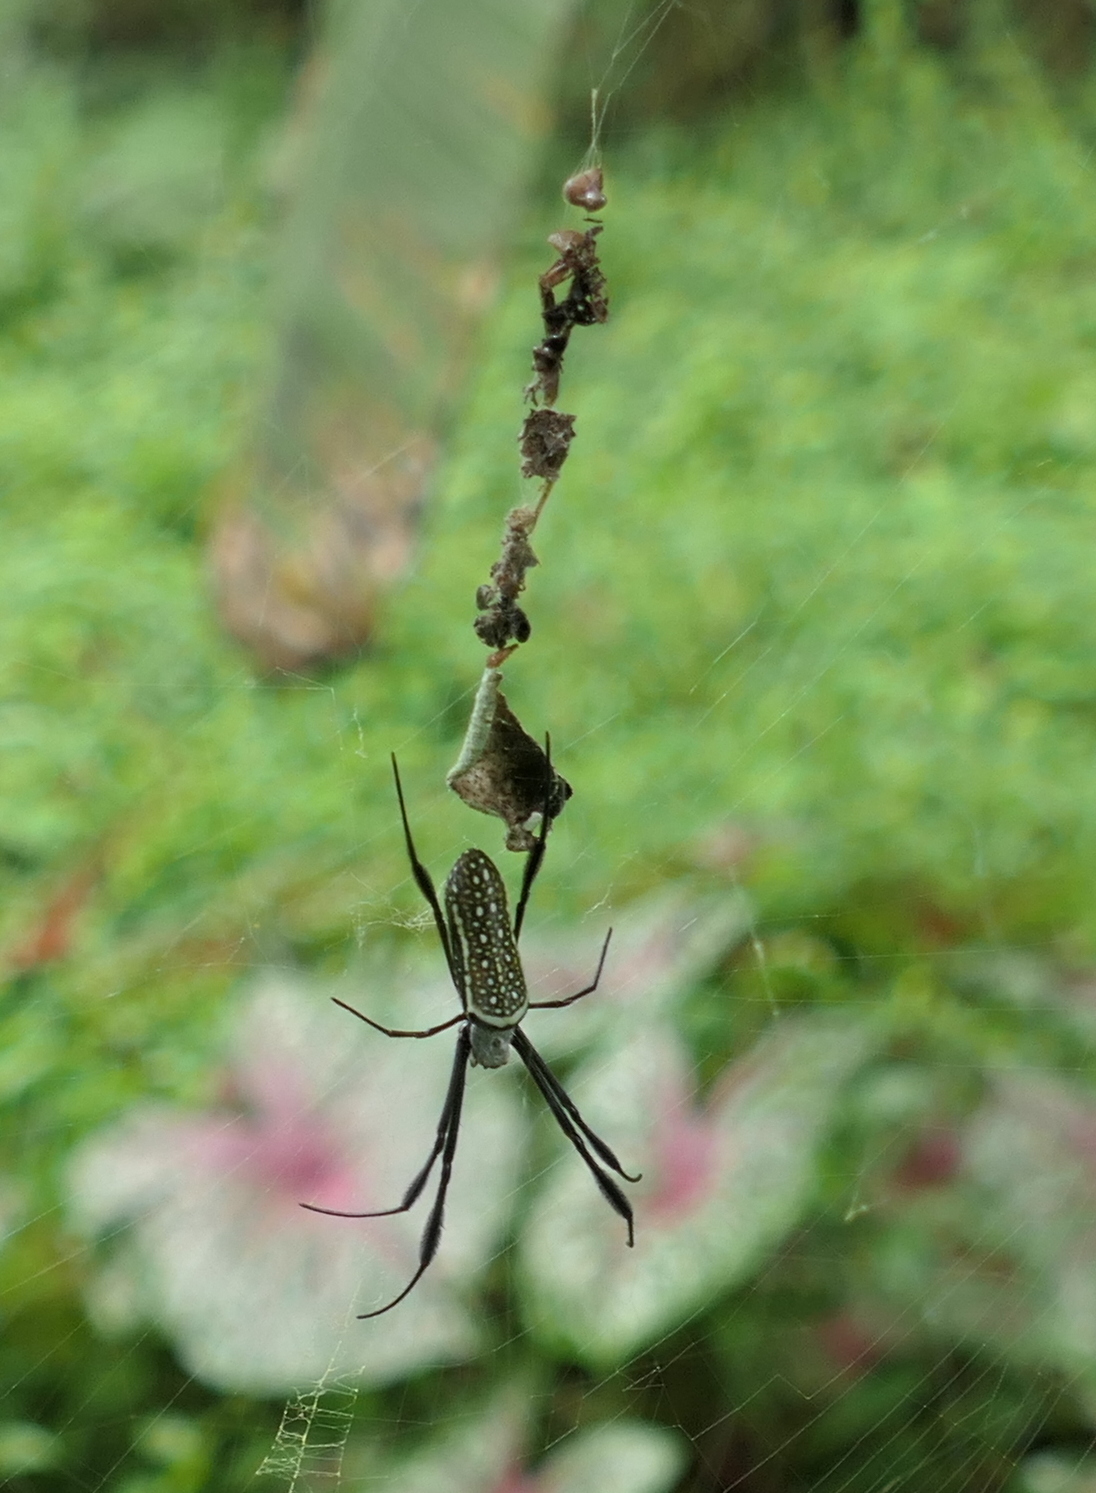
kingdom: Animalia
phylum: Arthropoda
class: Arachnida
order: Araneae
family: Araneidae
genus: Trichonephila
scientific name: Trichonephila clavipes
